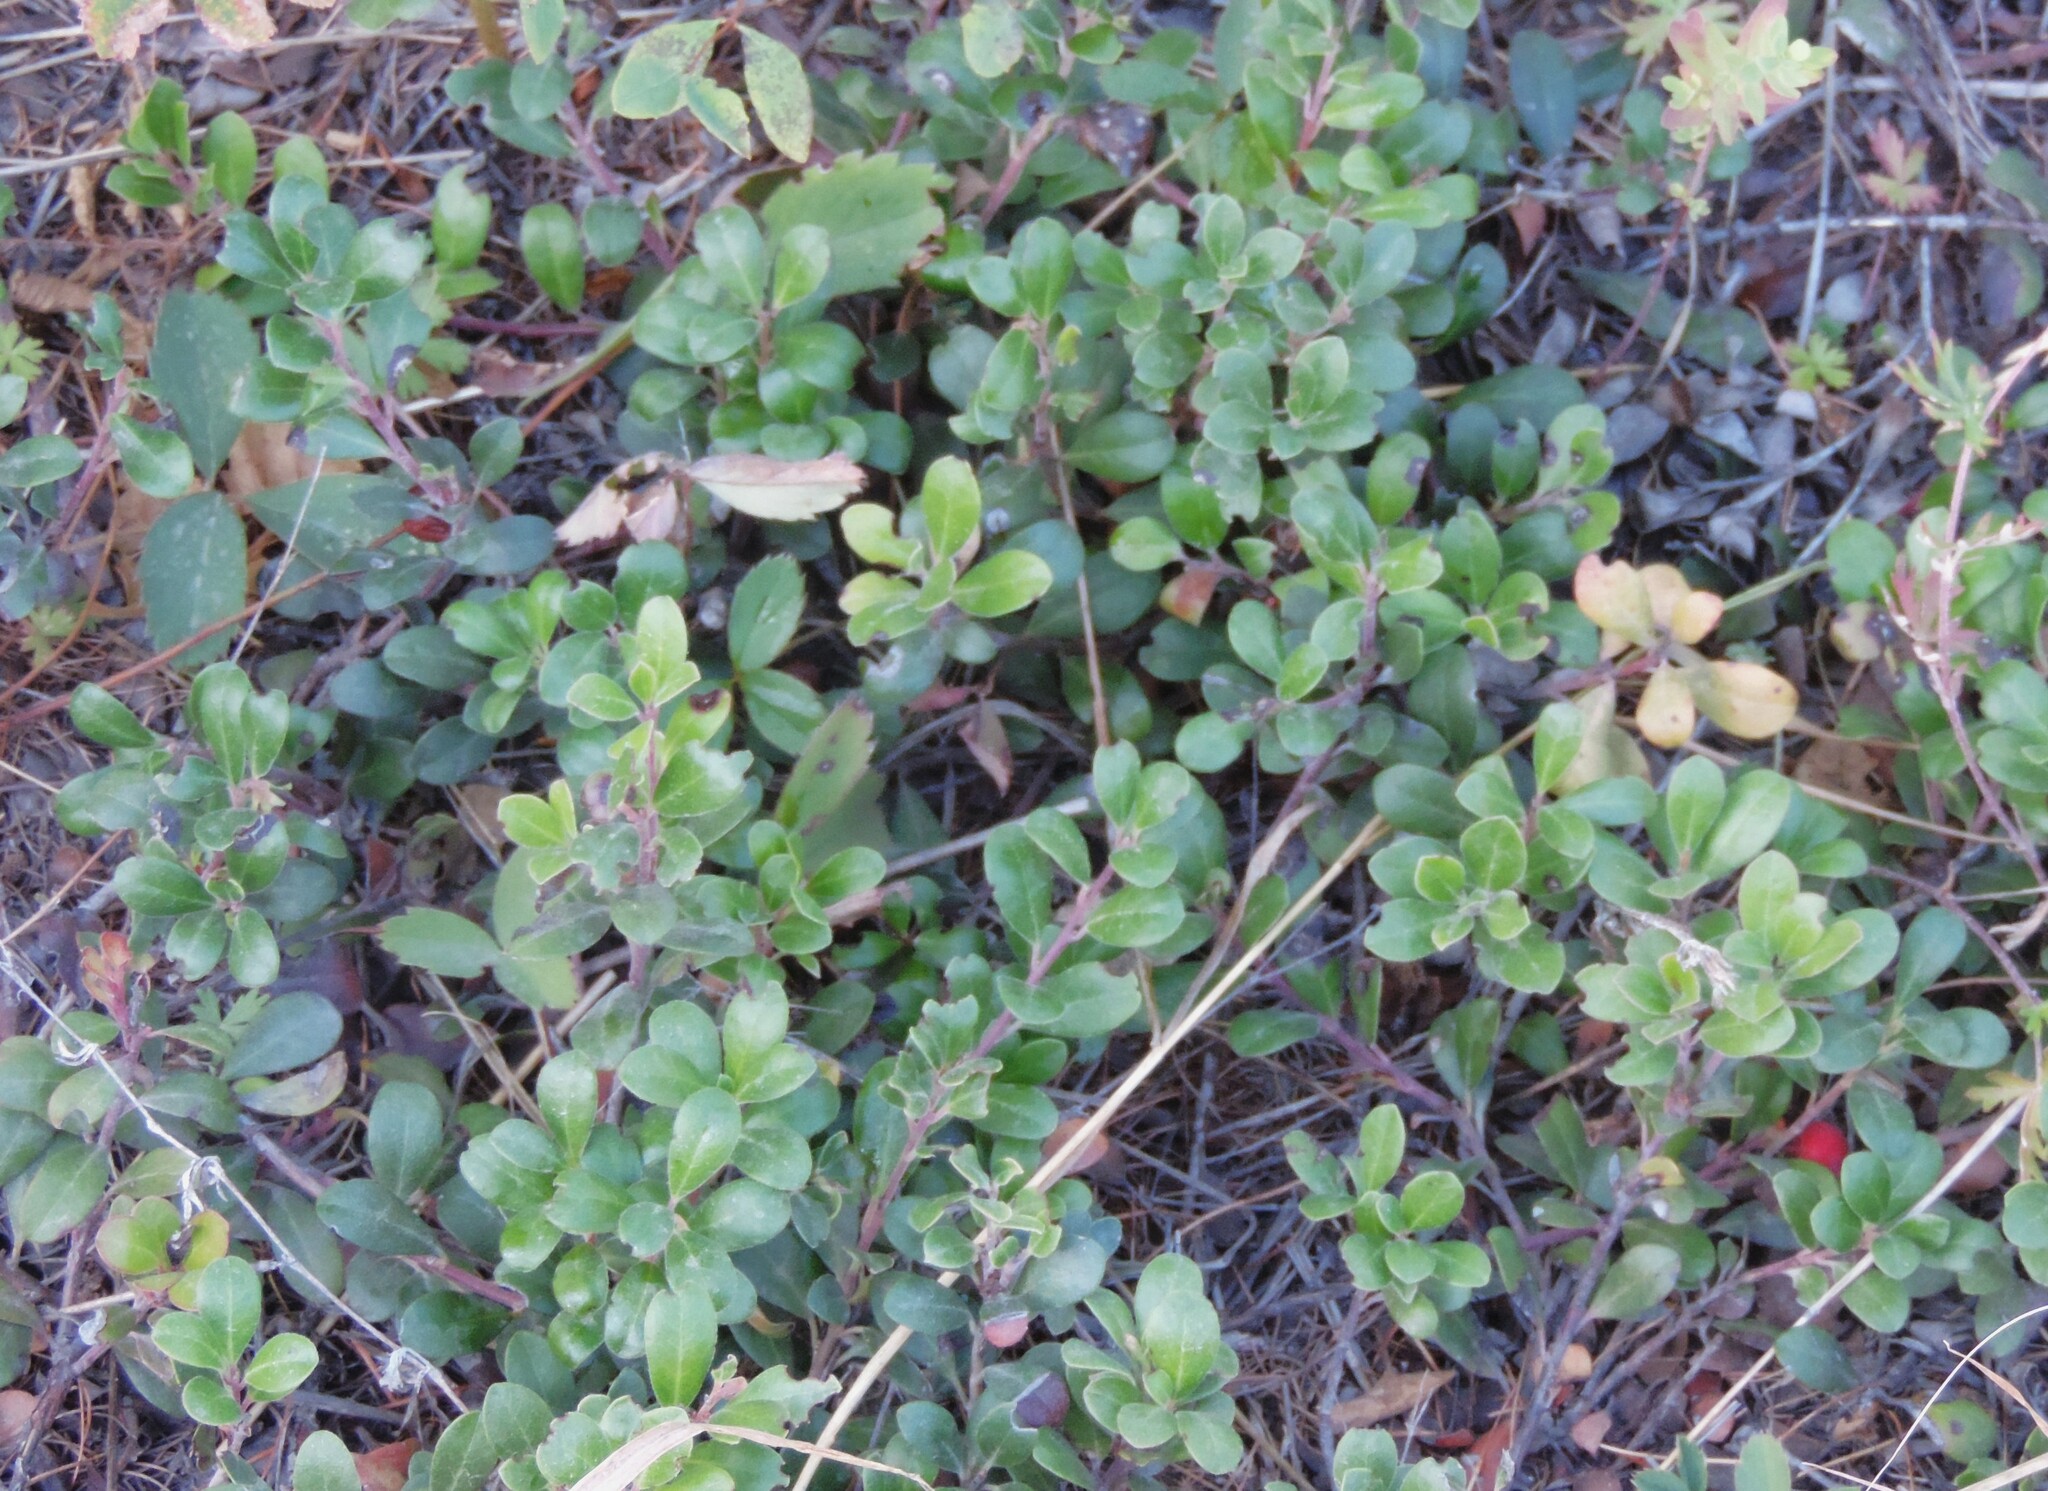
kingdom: Plantae
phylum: Tracheophyta
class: Magnoliopsida
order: Ericales
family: Ericaceae
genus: Arctostaphylos
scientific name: Arctostaphylos uva-ursi
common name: Bearberry
